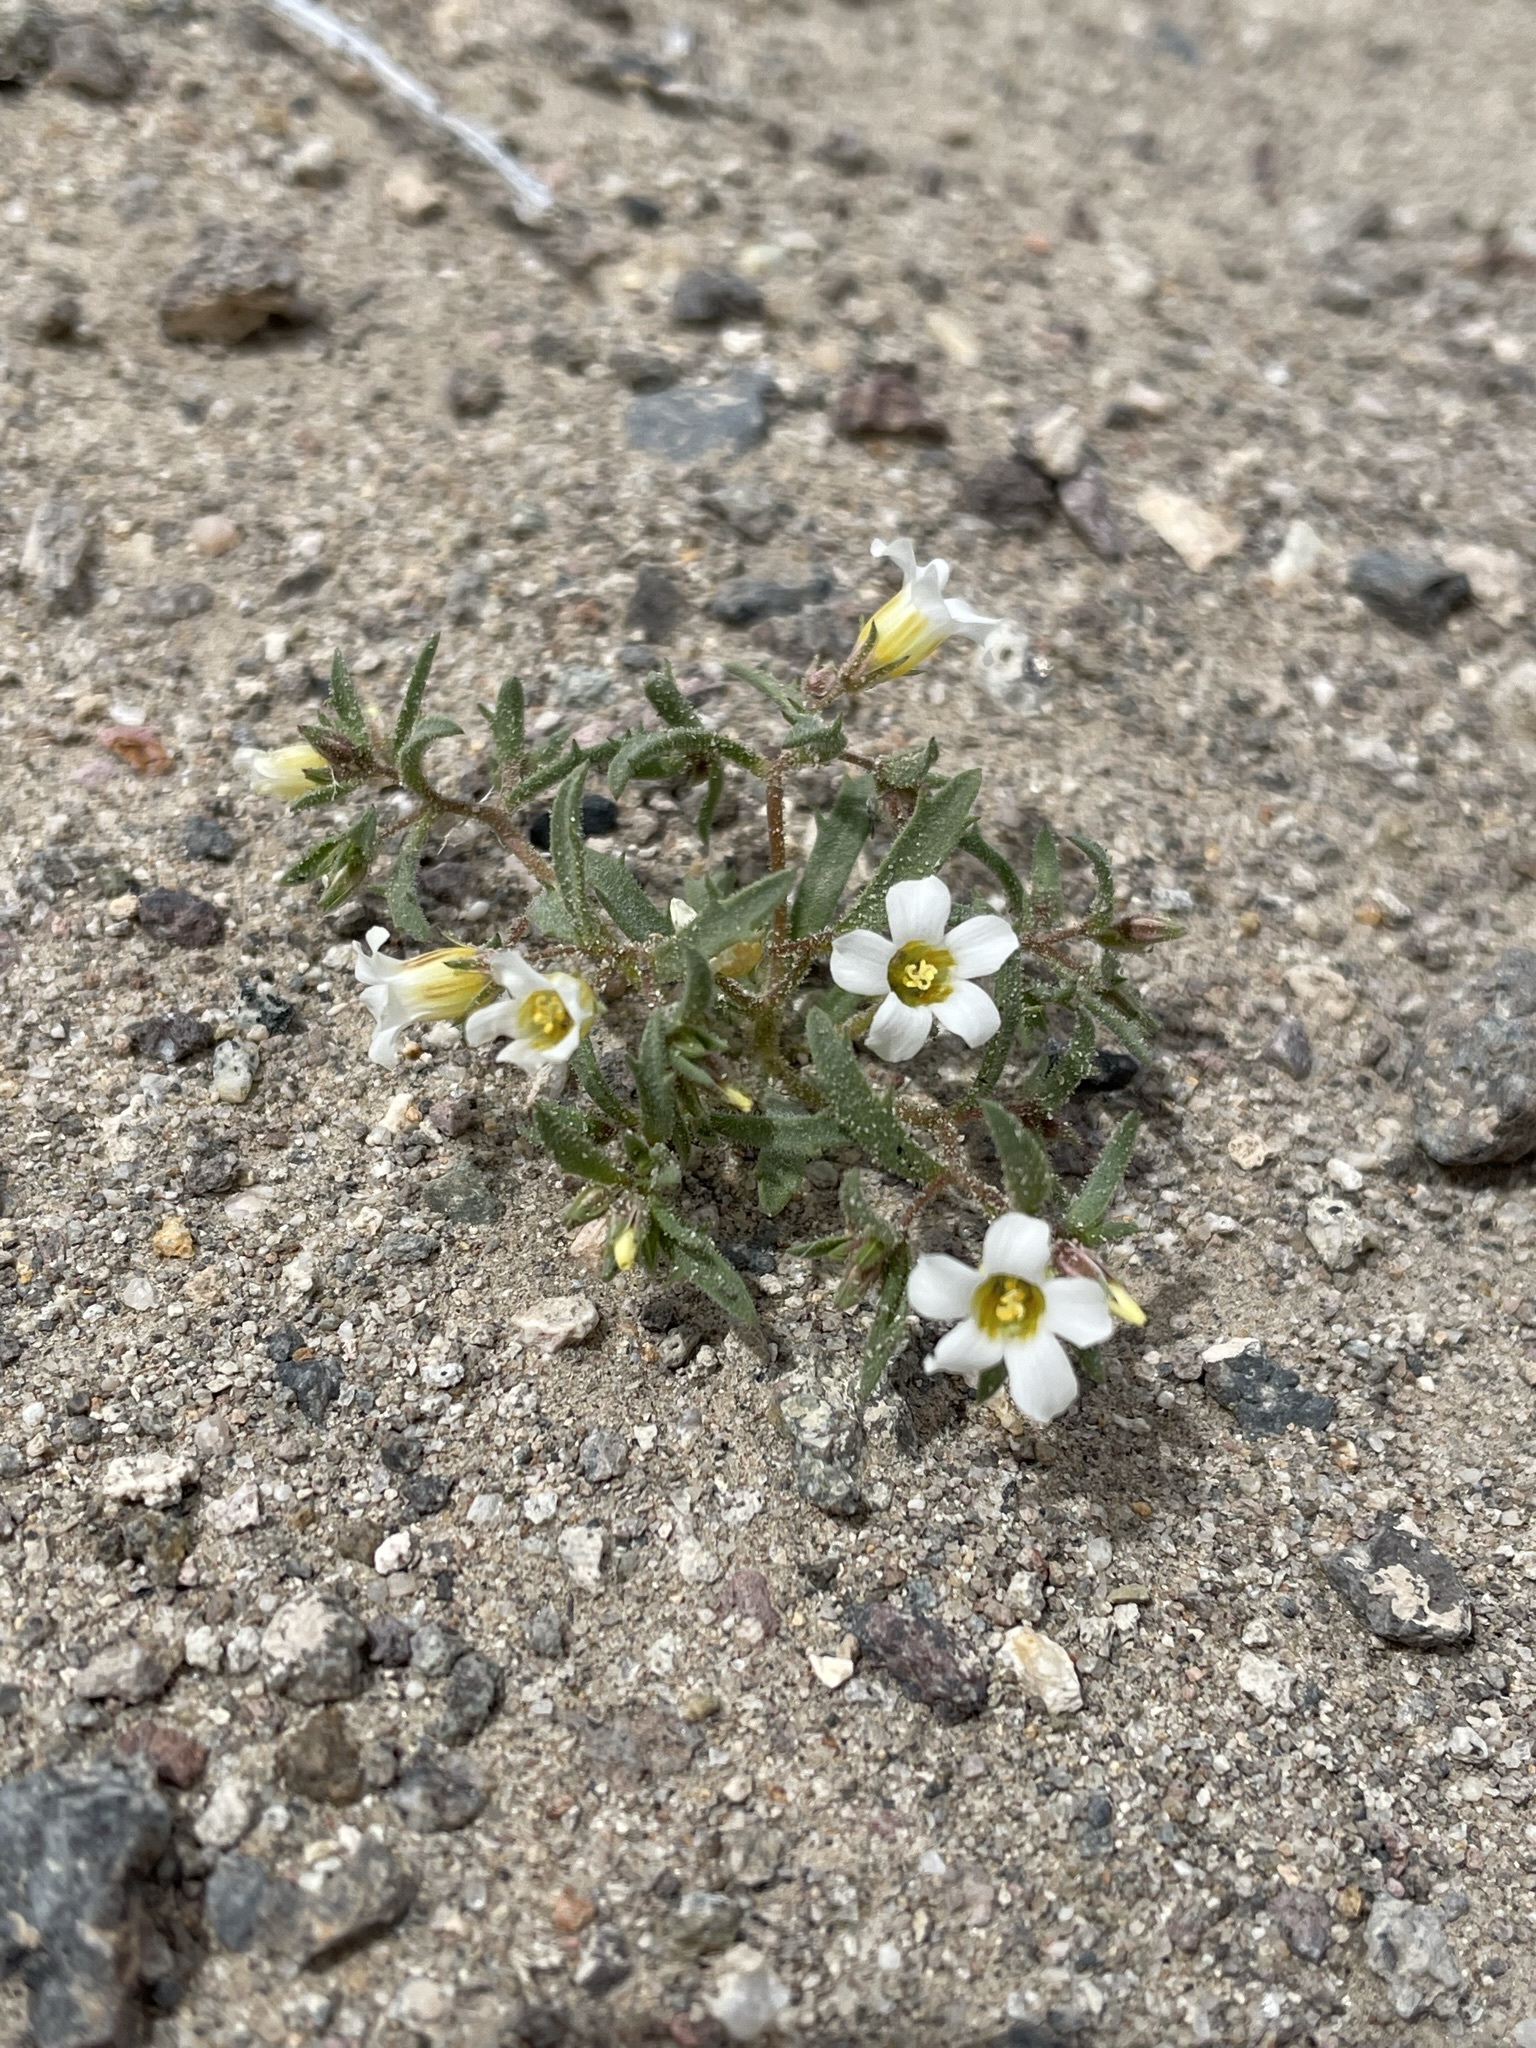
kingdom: Plantae
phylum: Tracheophyta
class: Magnoliopsida
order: Ericales
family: Polemoniaceae
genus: Linanthus
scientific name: Linanthus campanulatus
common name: Bellshape gilia
